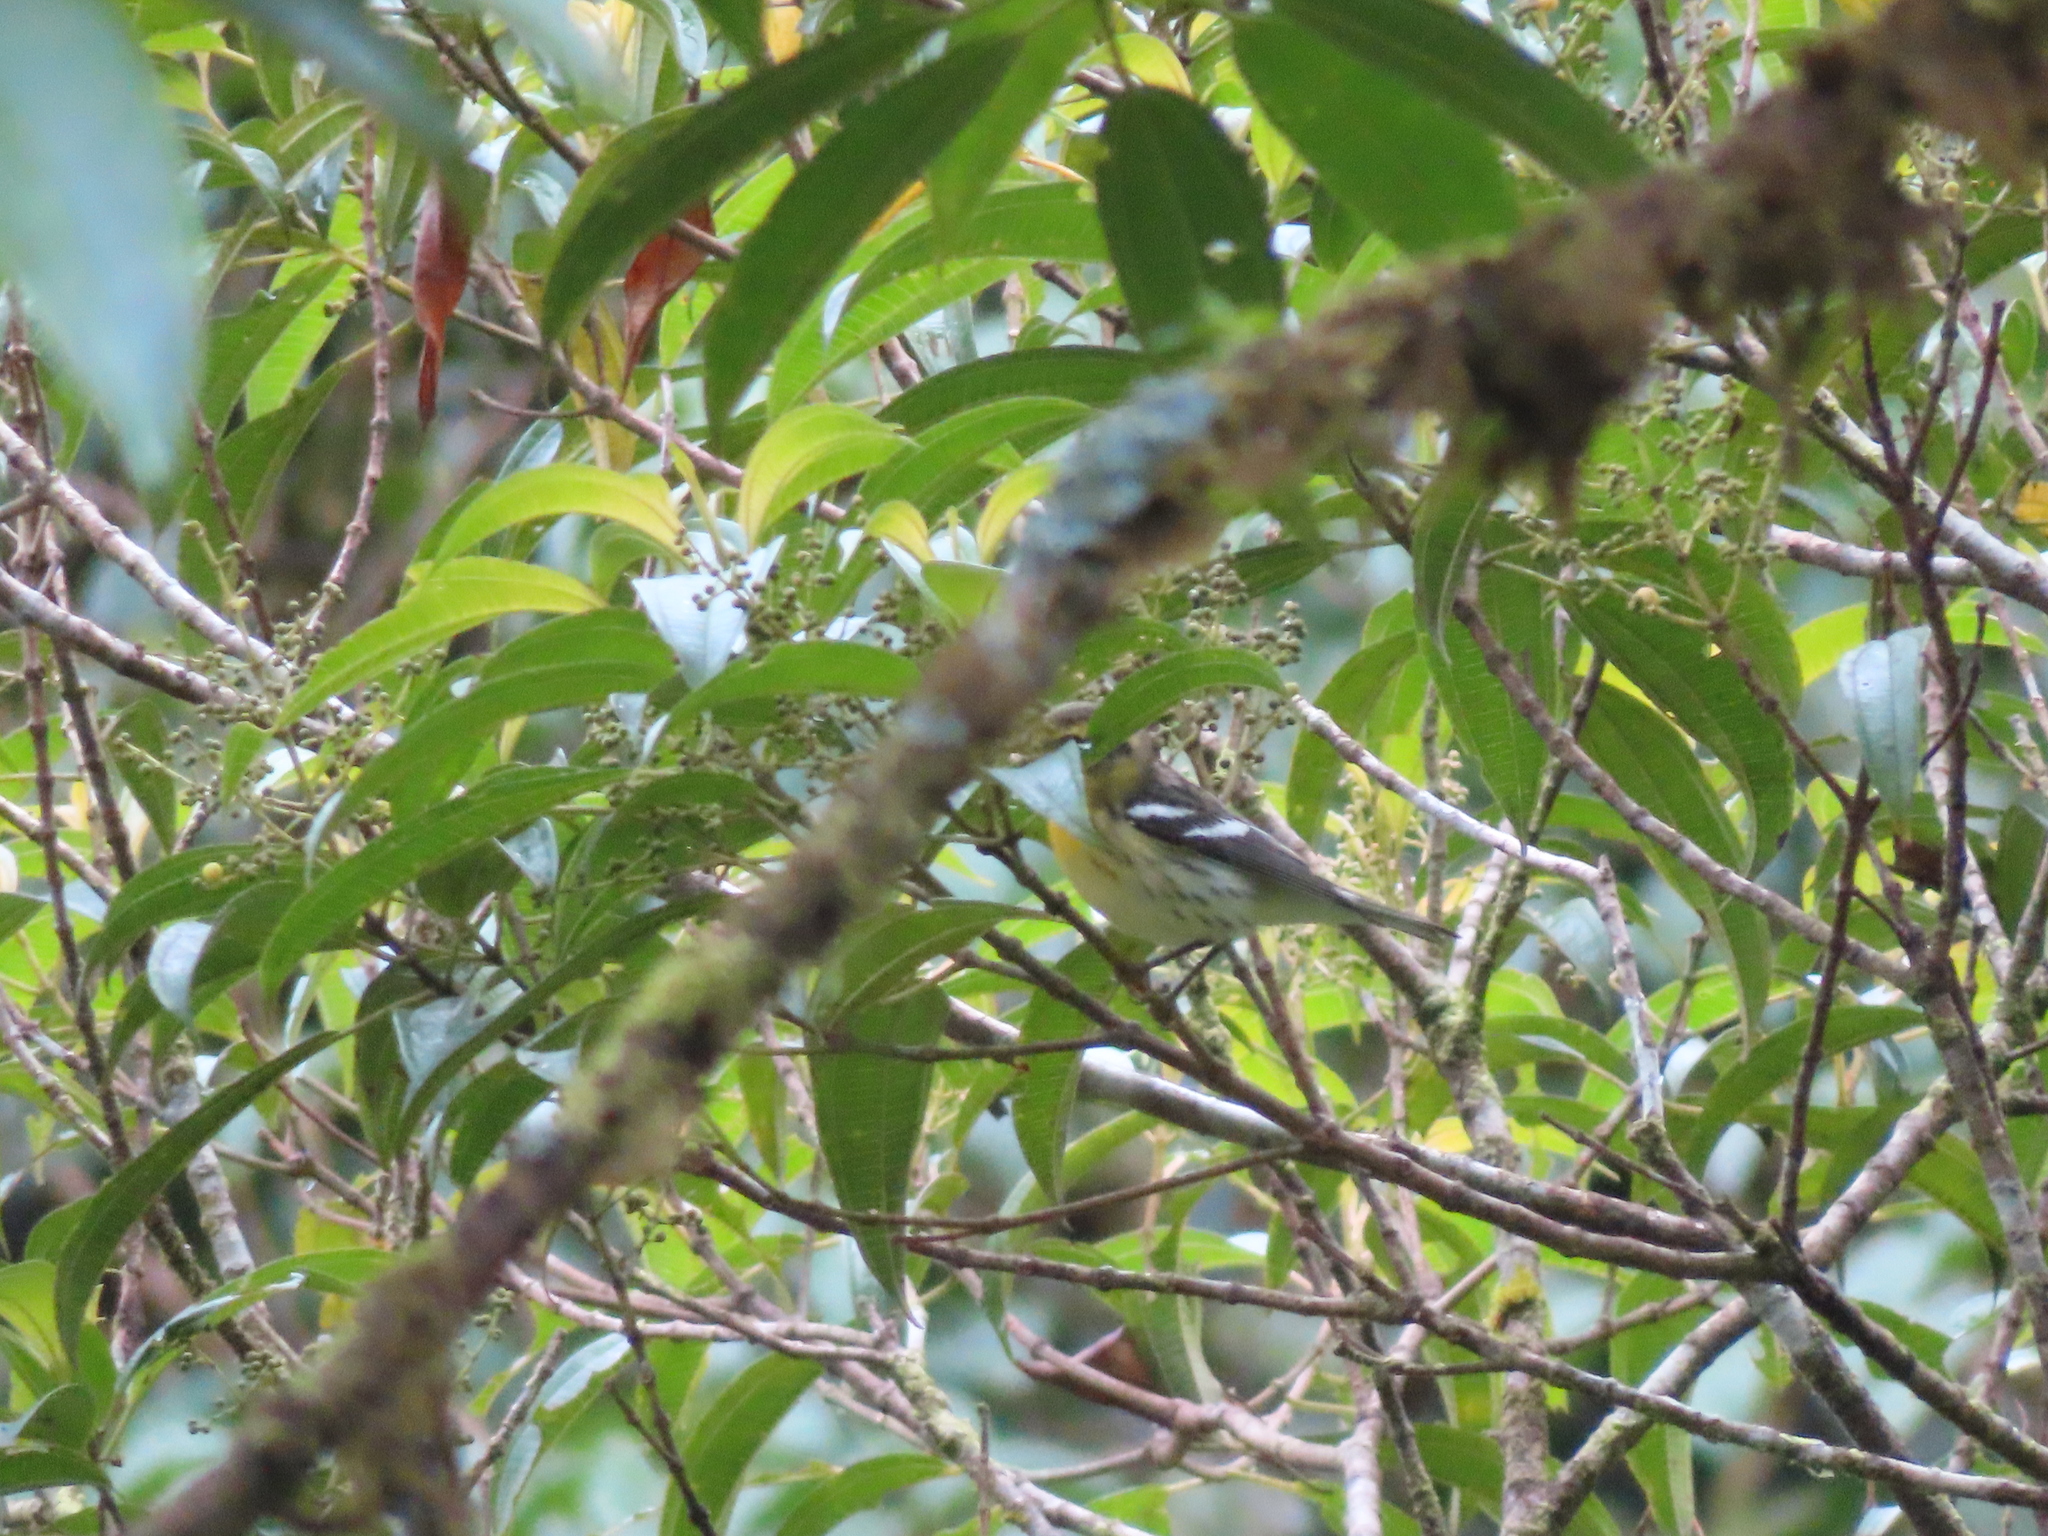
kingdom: Animalia
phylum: Chordata
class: Aves
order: Passeriformes
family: Parulidae
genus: Setophaga
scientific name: Setophaga fusca
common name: Blackburnian warbler
